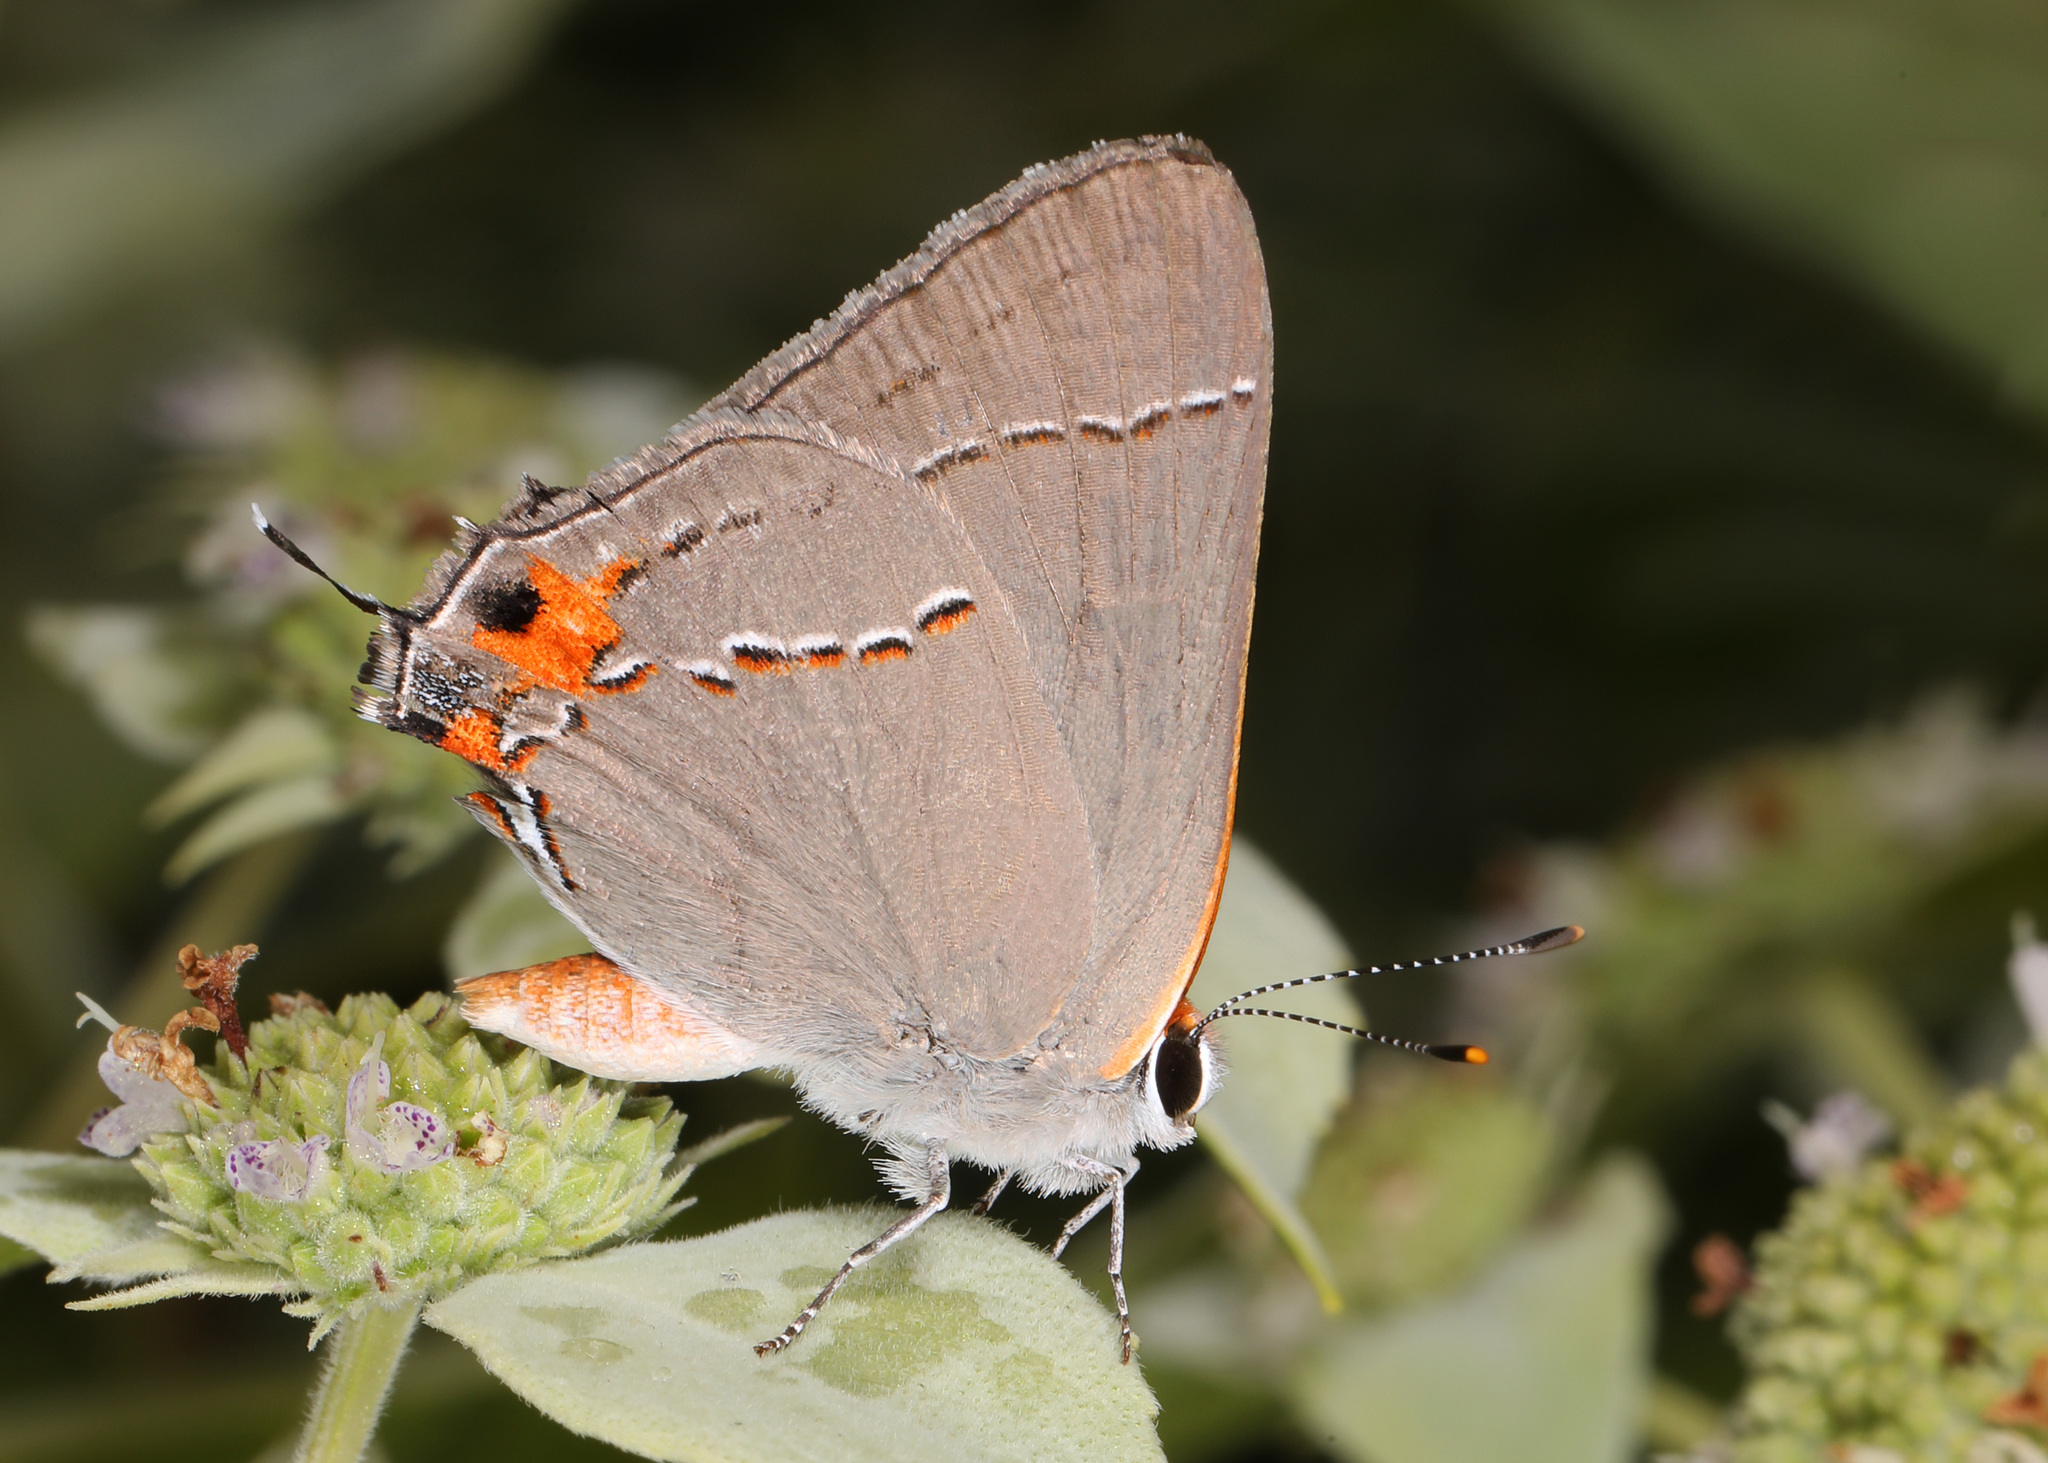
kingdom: Animalia
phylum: Arthropoda
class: Insecta
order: Lepidoptera
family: Lycaenidae
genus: Strymon
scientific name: Strymon melinus
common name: Gray hairstreak
